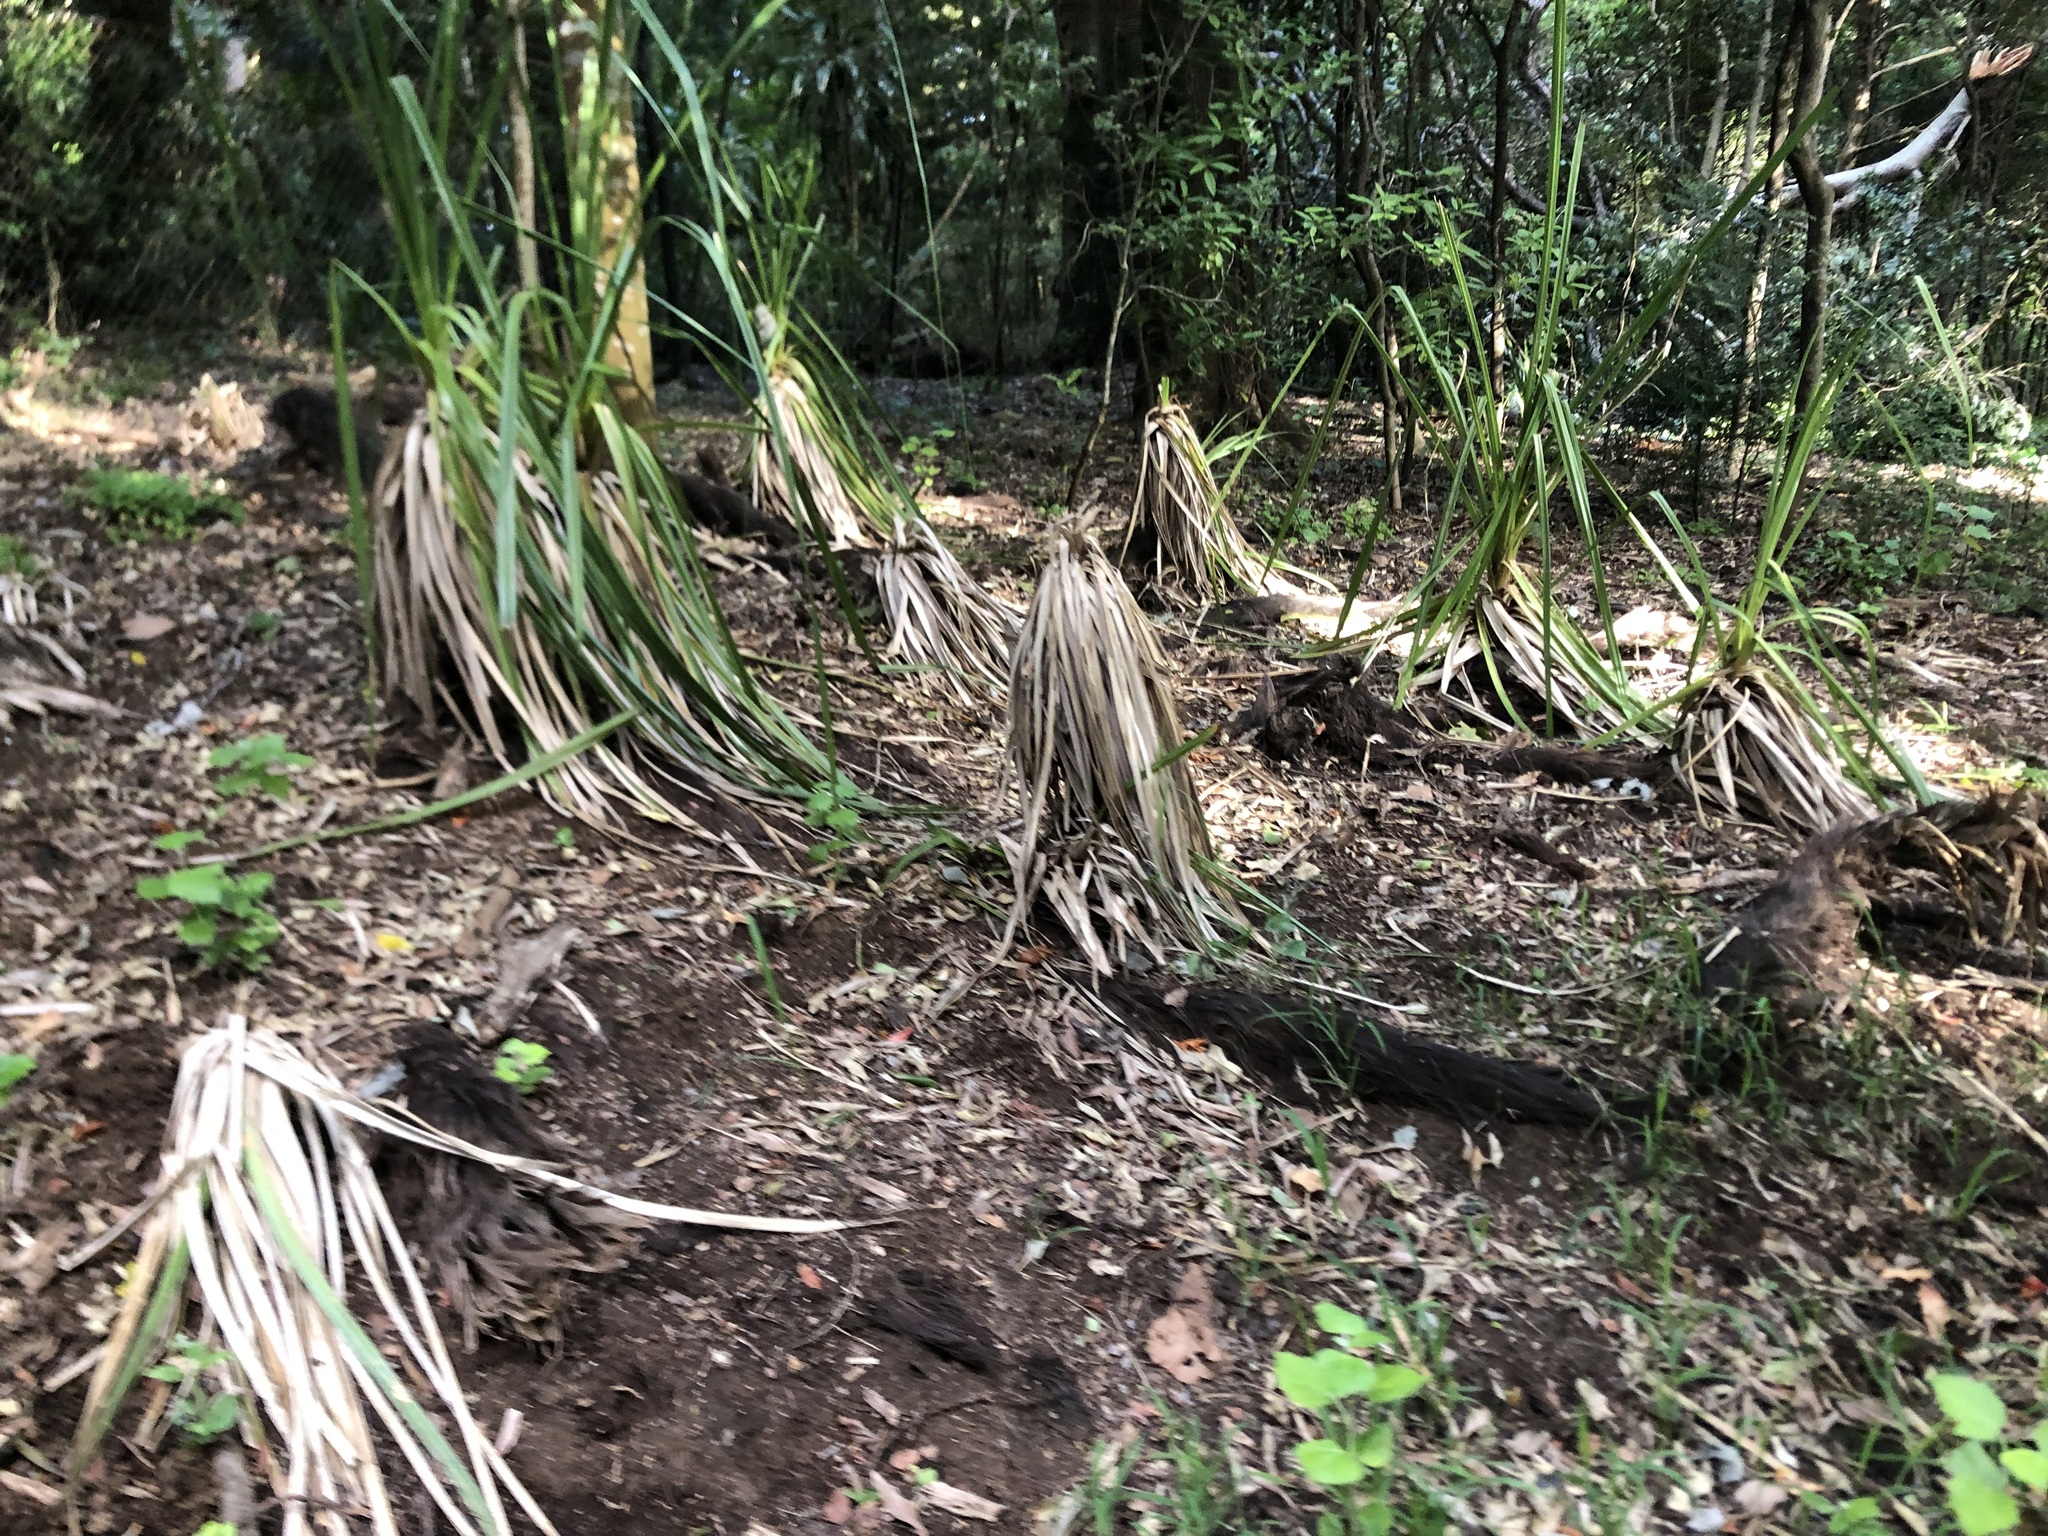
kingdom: Plantae
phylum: Tracheophyta
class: Liliopsida
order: Poales
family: Thurniaceae
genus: Prionium
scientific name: Prionium serratum
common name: Palmiet
